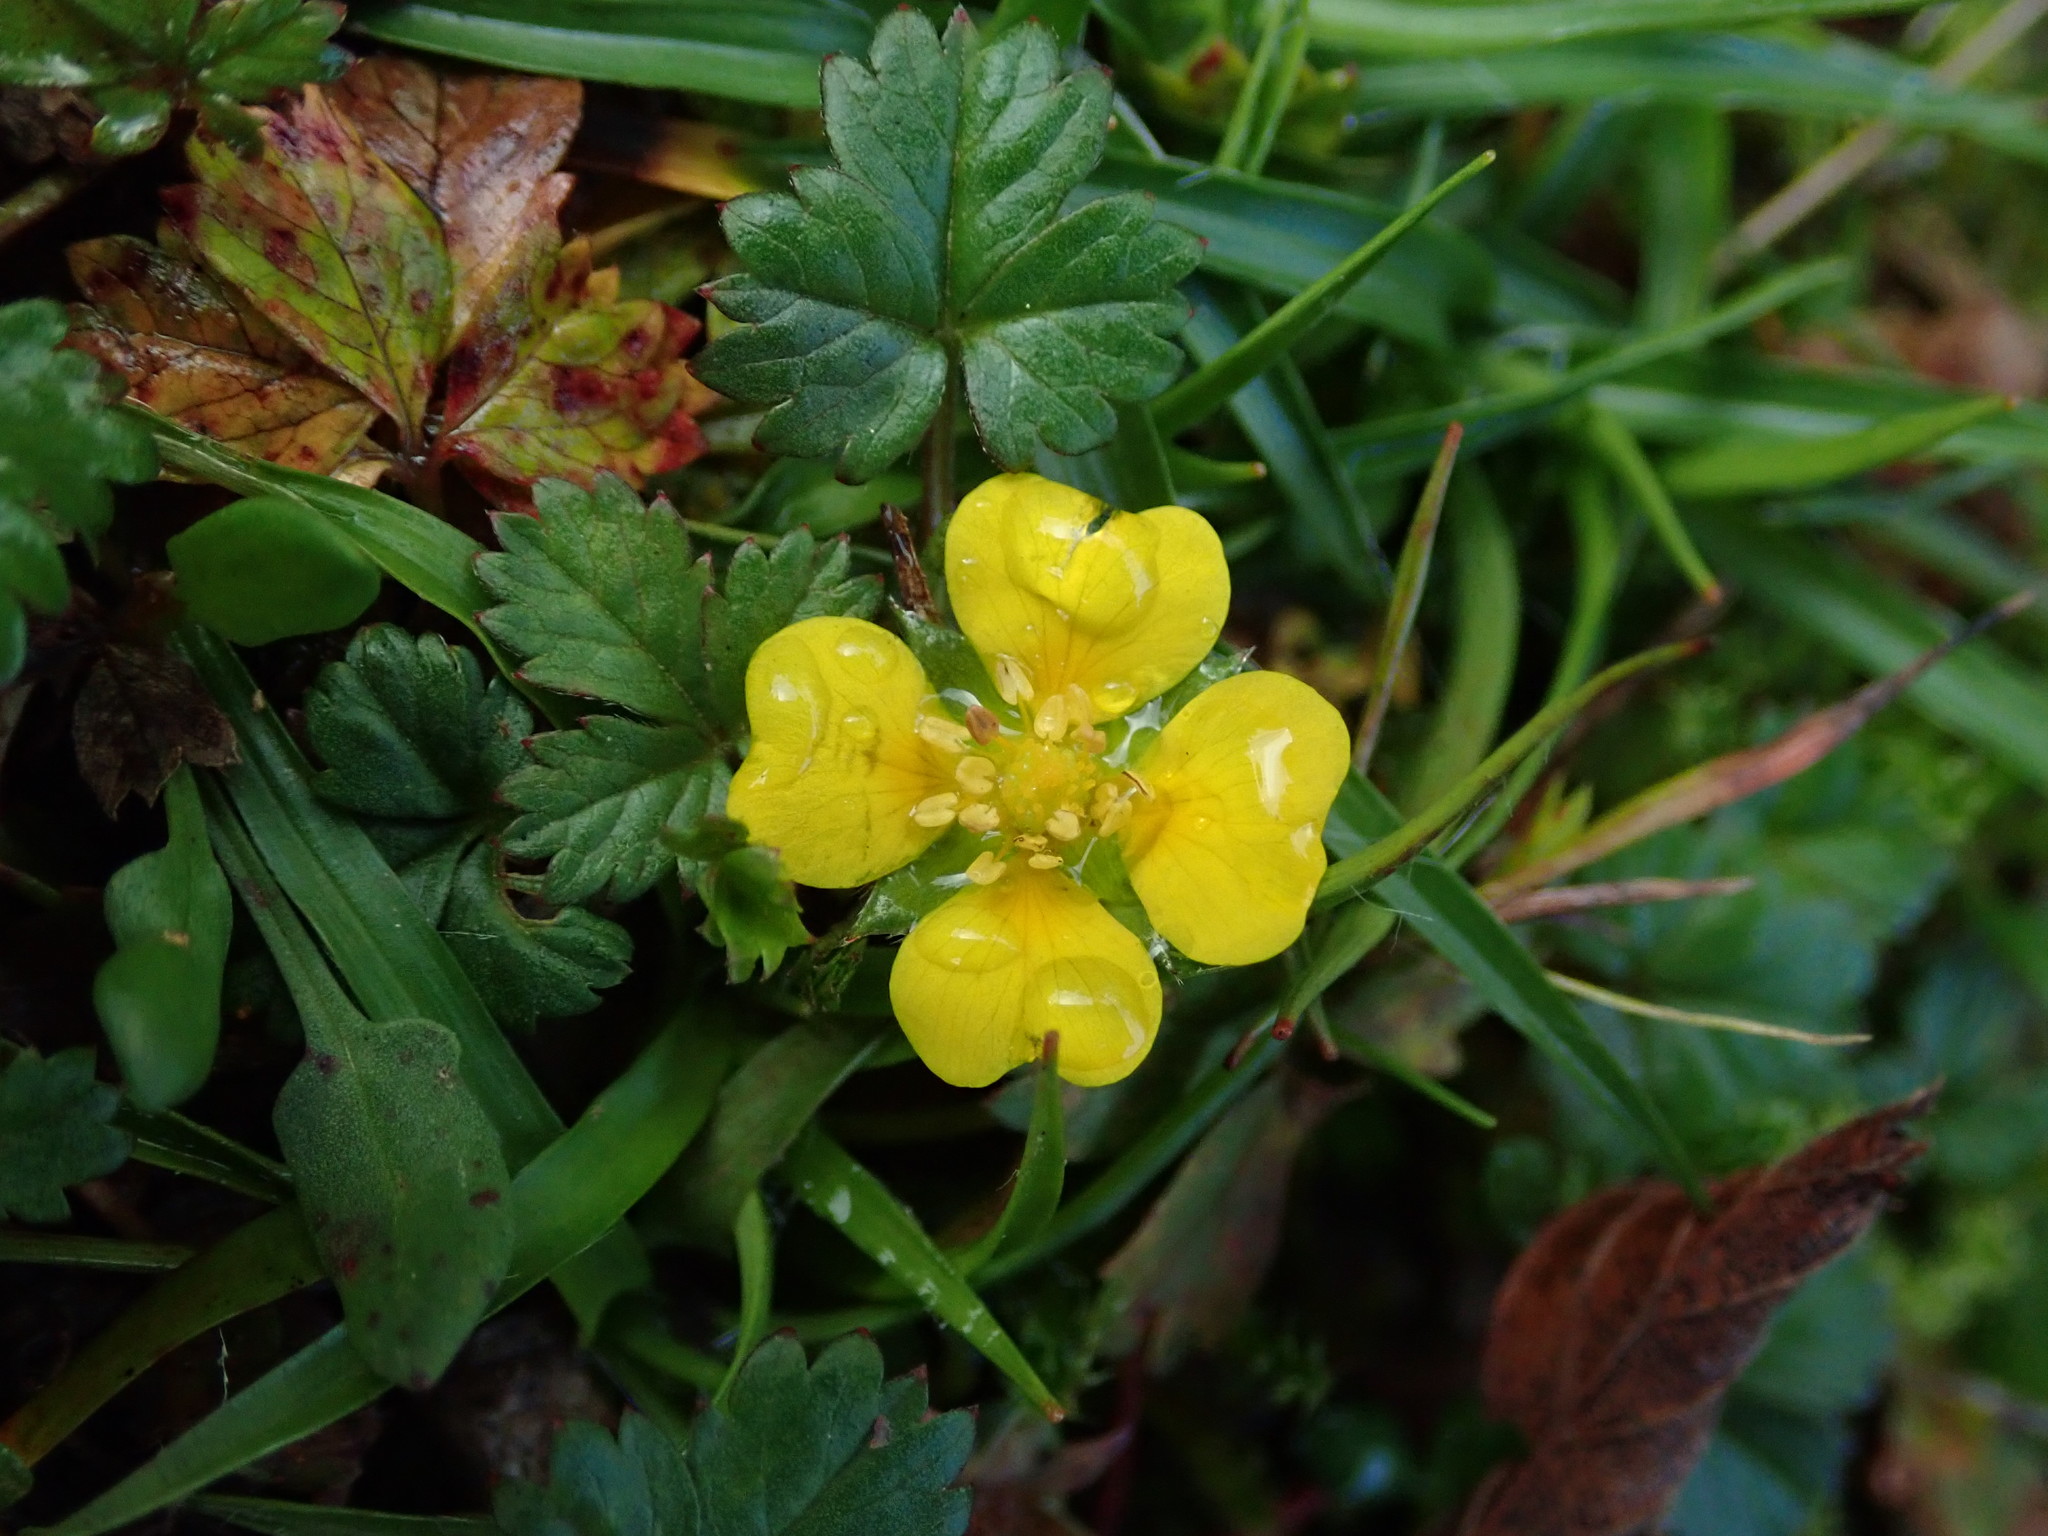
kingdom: Plantae
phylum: Tracheophyta
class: Magnoliopsida
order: Rosales
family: Rosaceae
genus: Potentilla
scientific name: Potentilla erecta
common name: Tormentil
